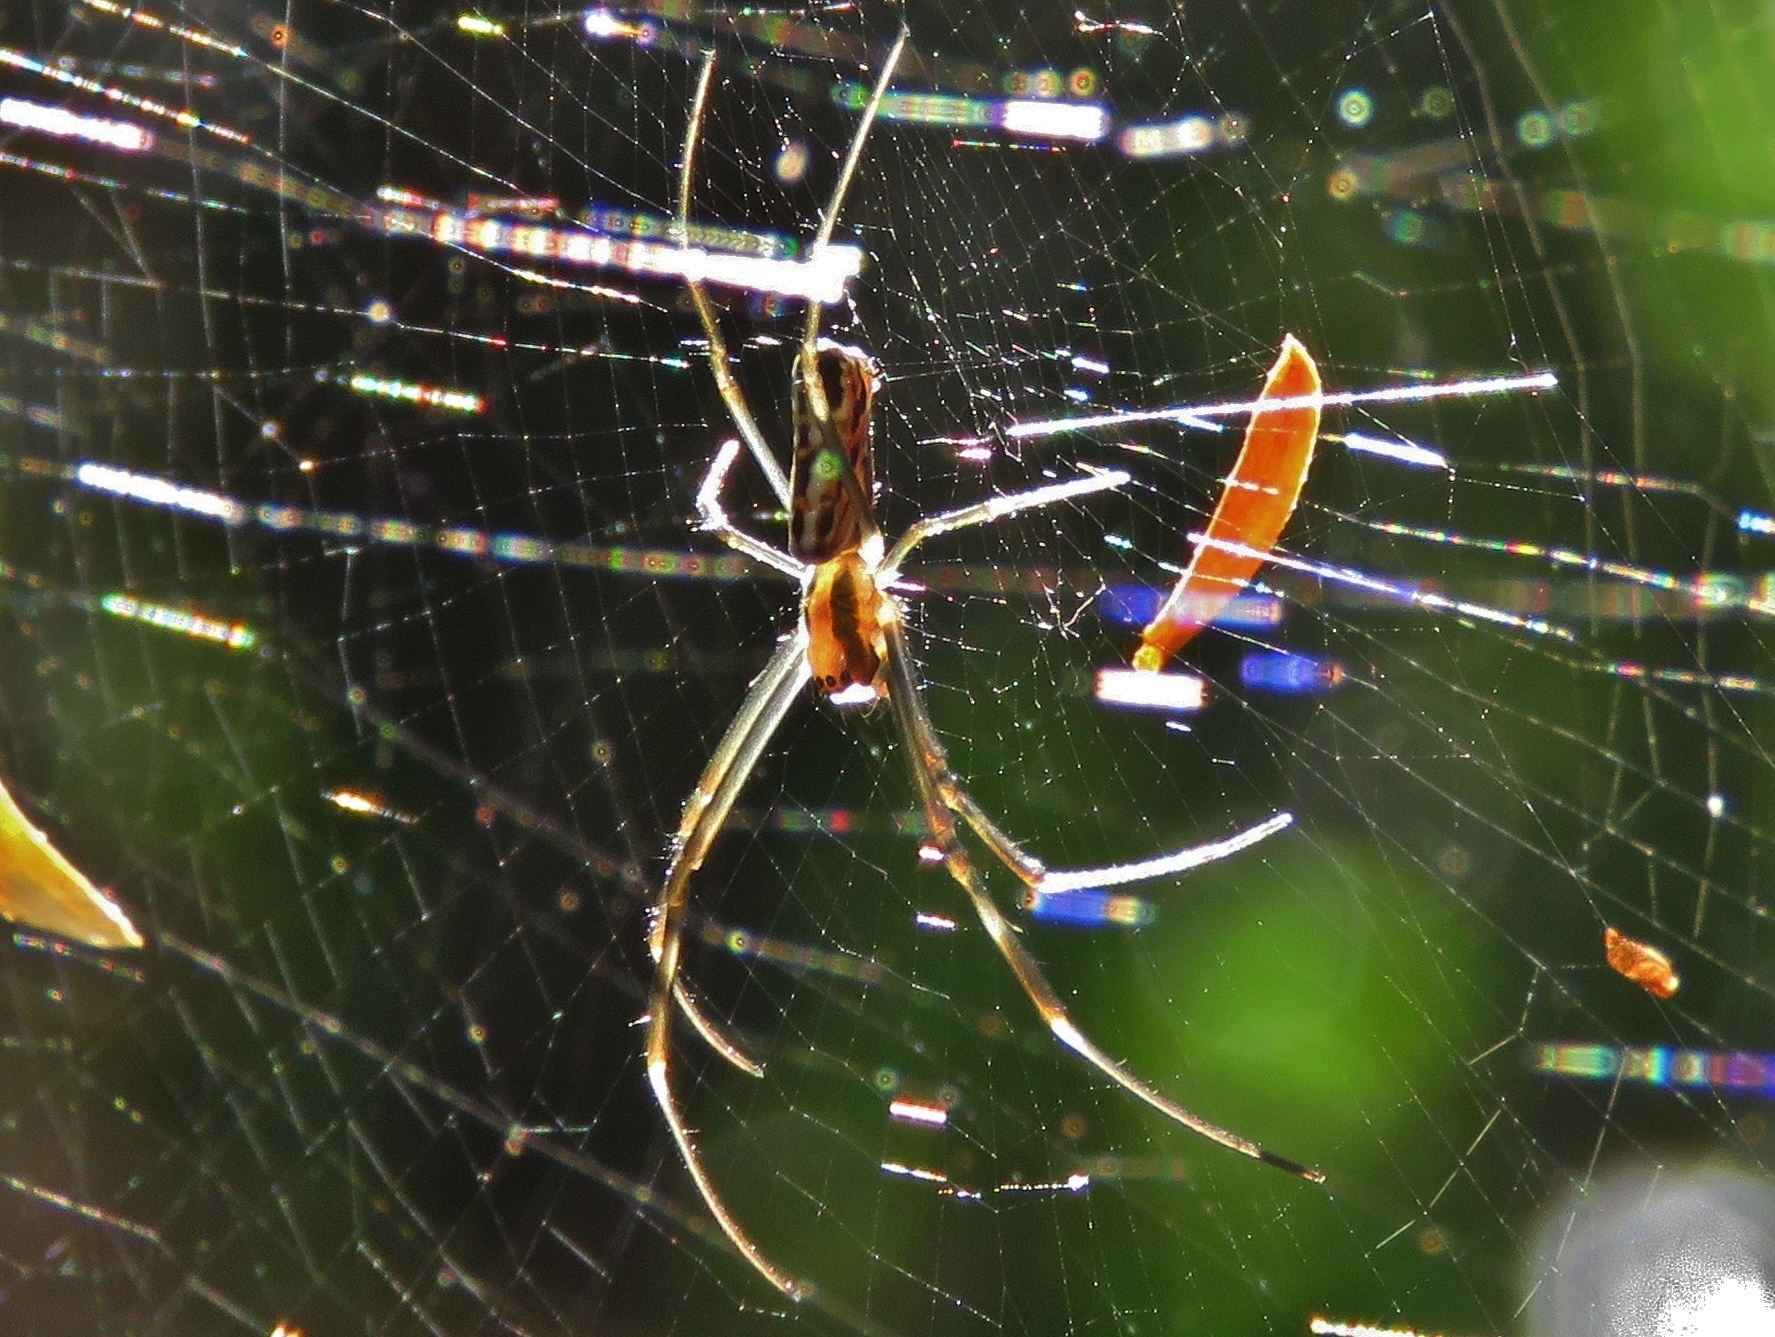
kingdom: Animalia
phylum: Arthropoda
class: Arachnida
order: Araneae
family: Araneidae
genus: Trichonephila
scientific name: Trichonephila clavipes
